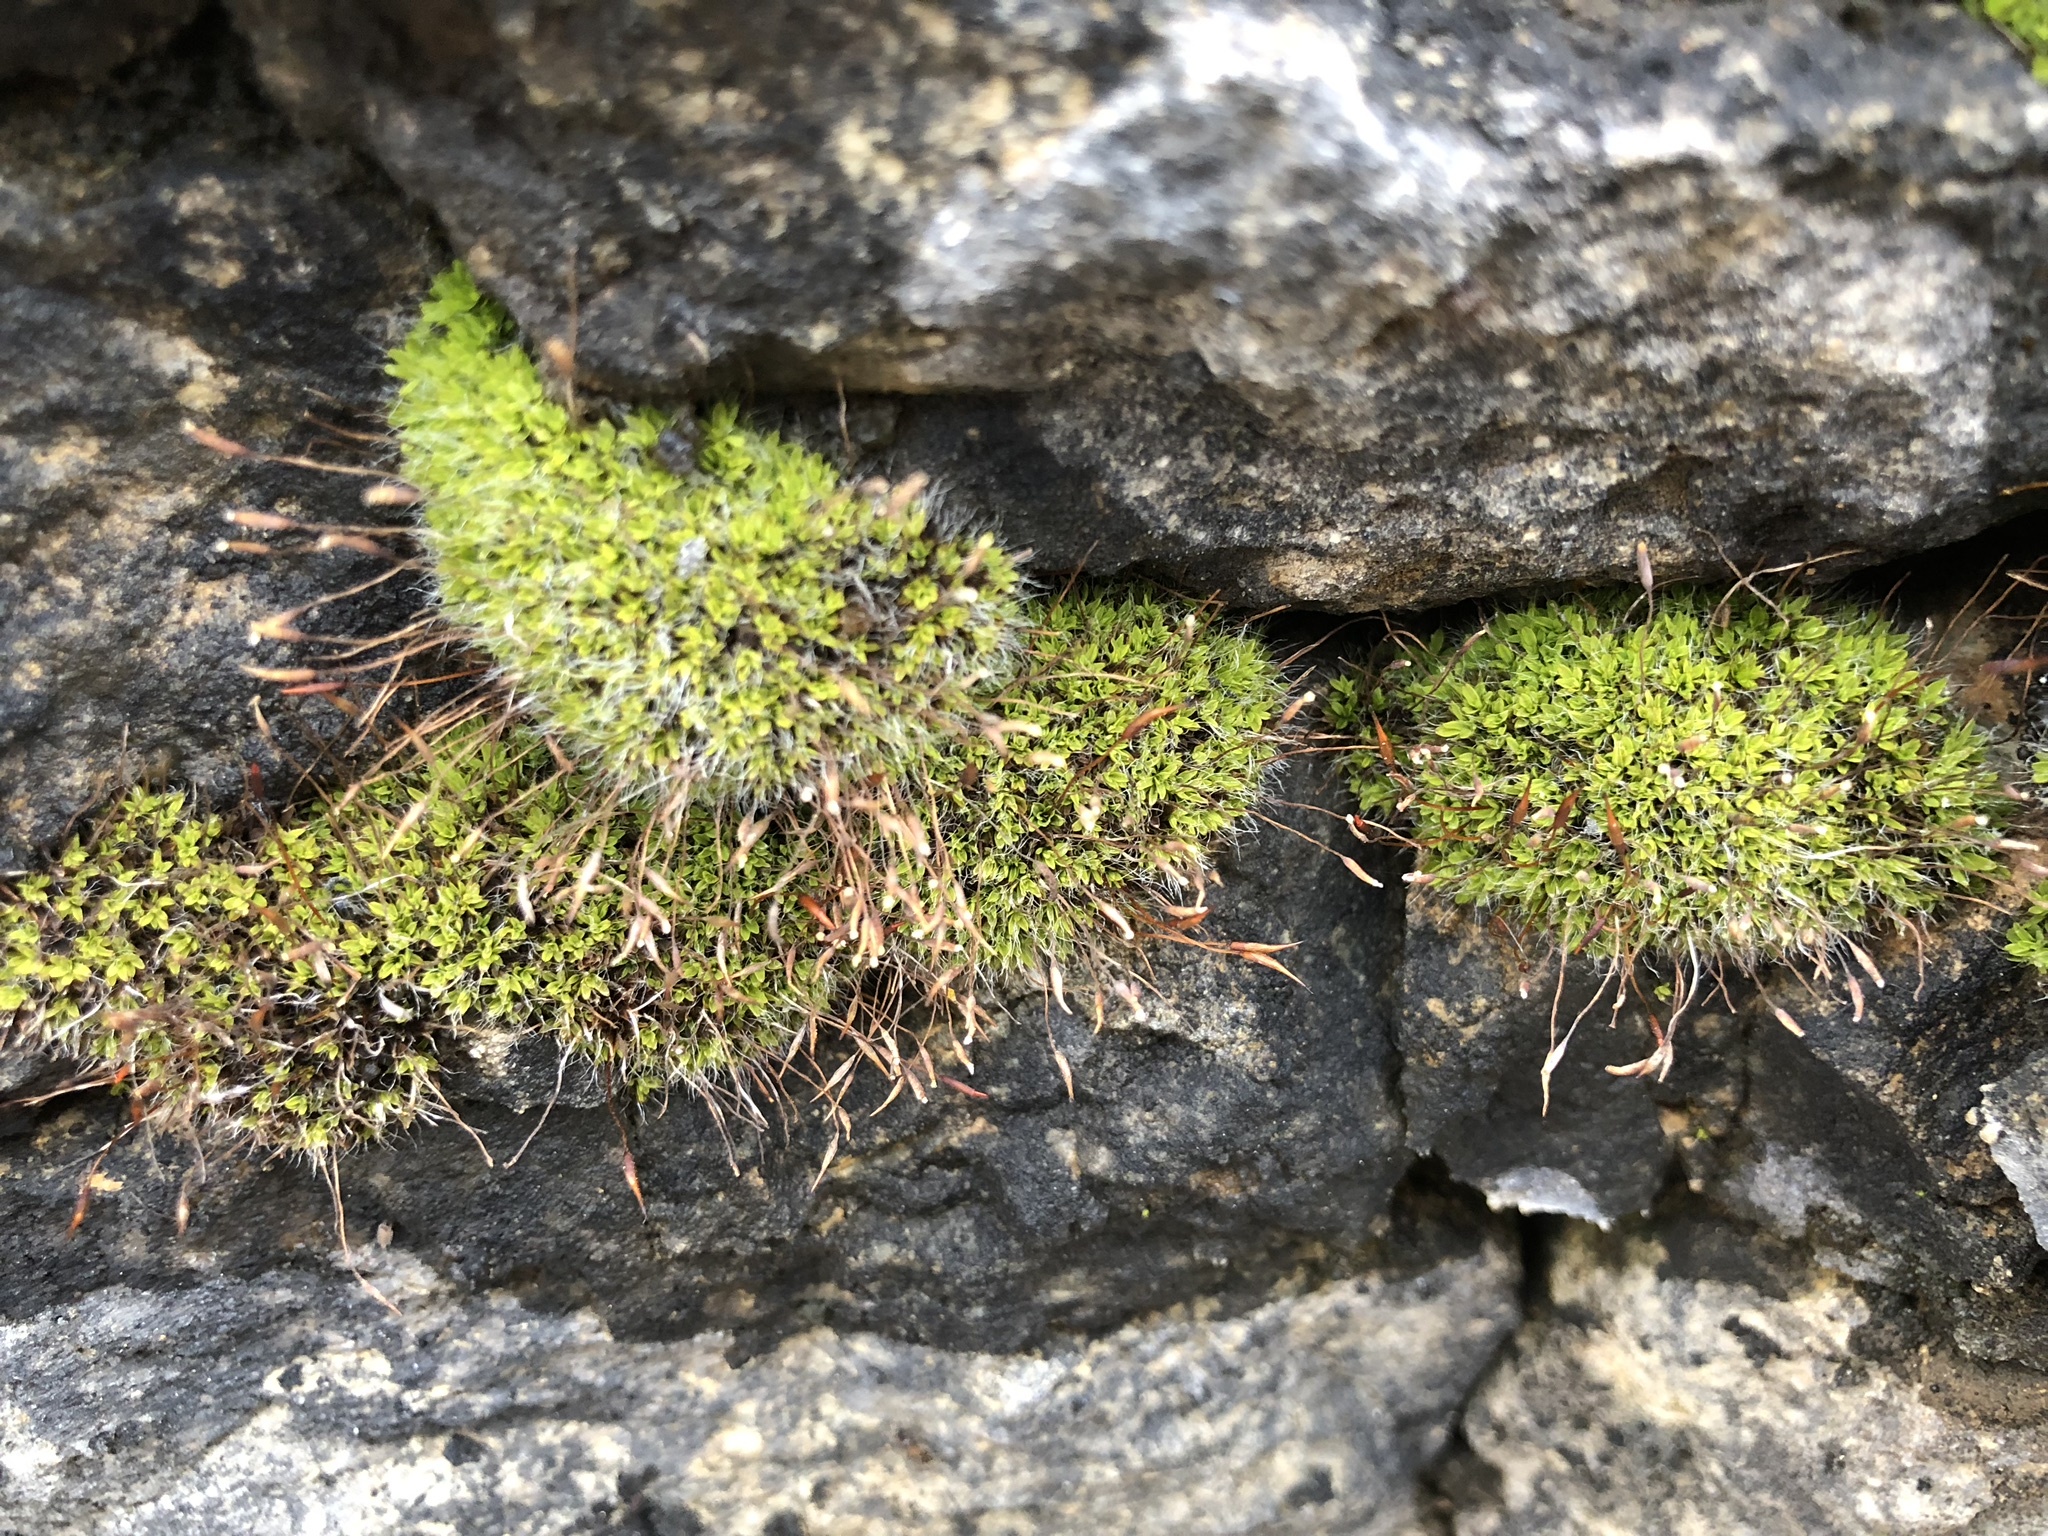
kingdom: Plantae
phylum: Bryophyta
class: Bryopsida
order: Pottiales
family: Pottiaceae
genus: Tortula
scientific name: Tortula muralis
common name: Wall screw-moss
